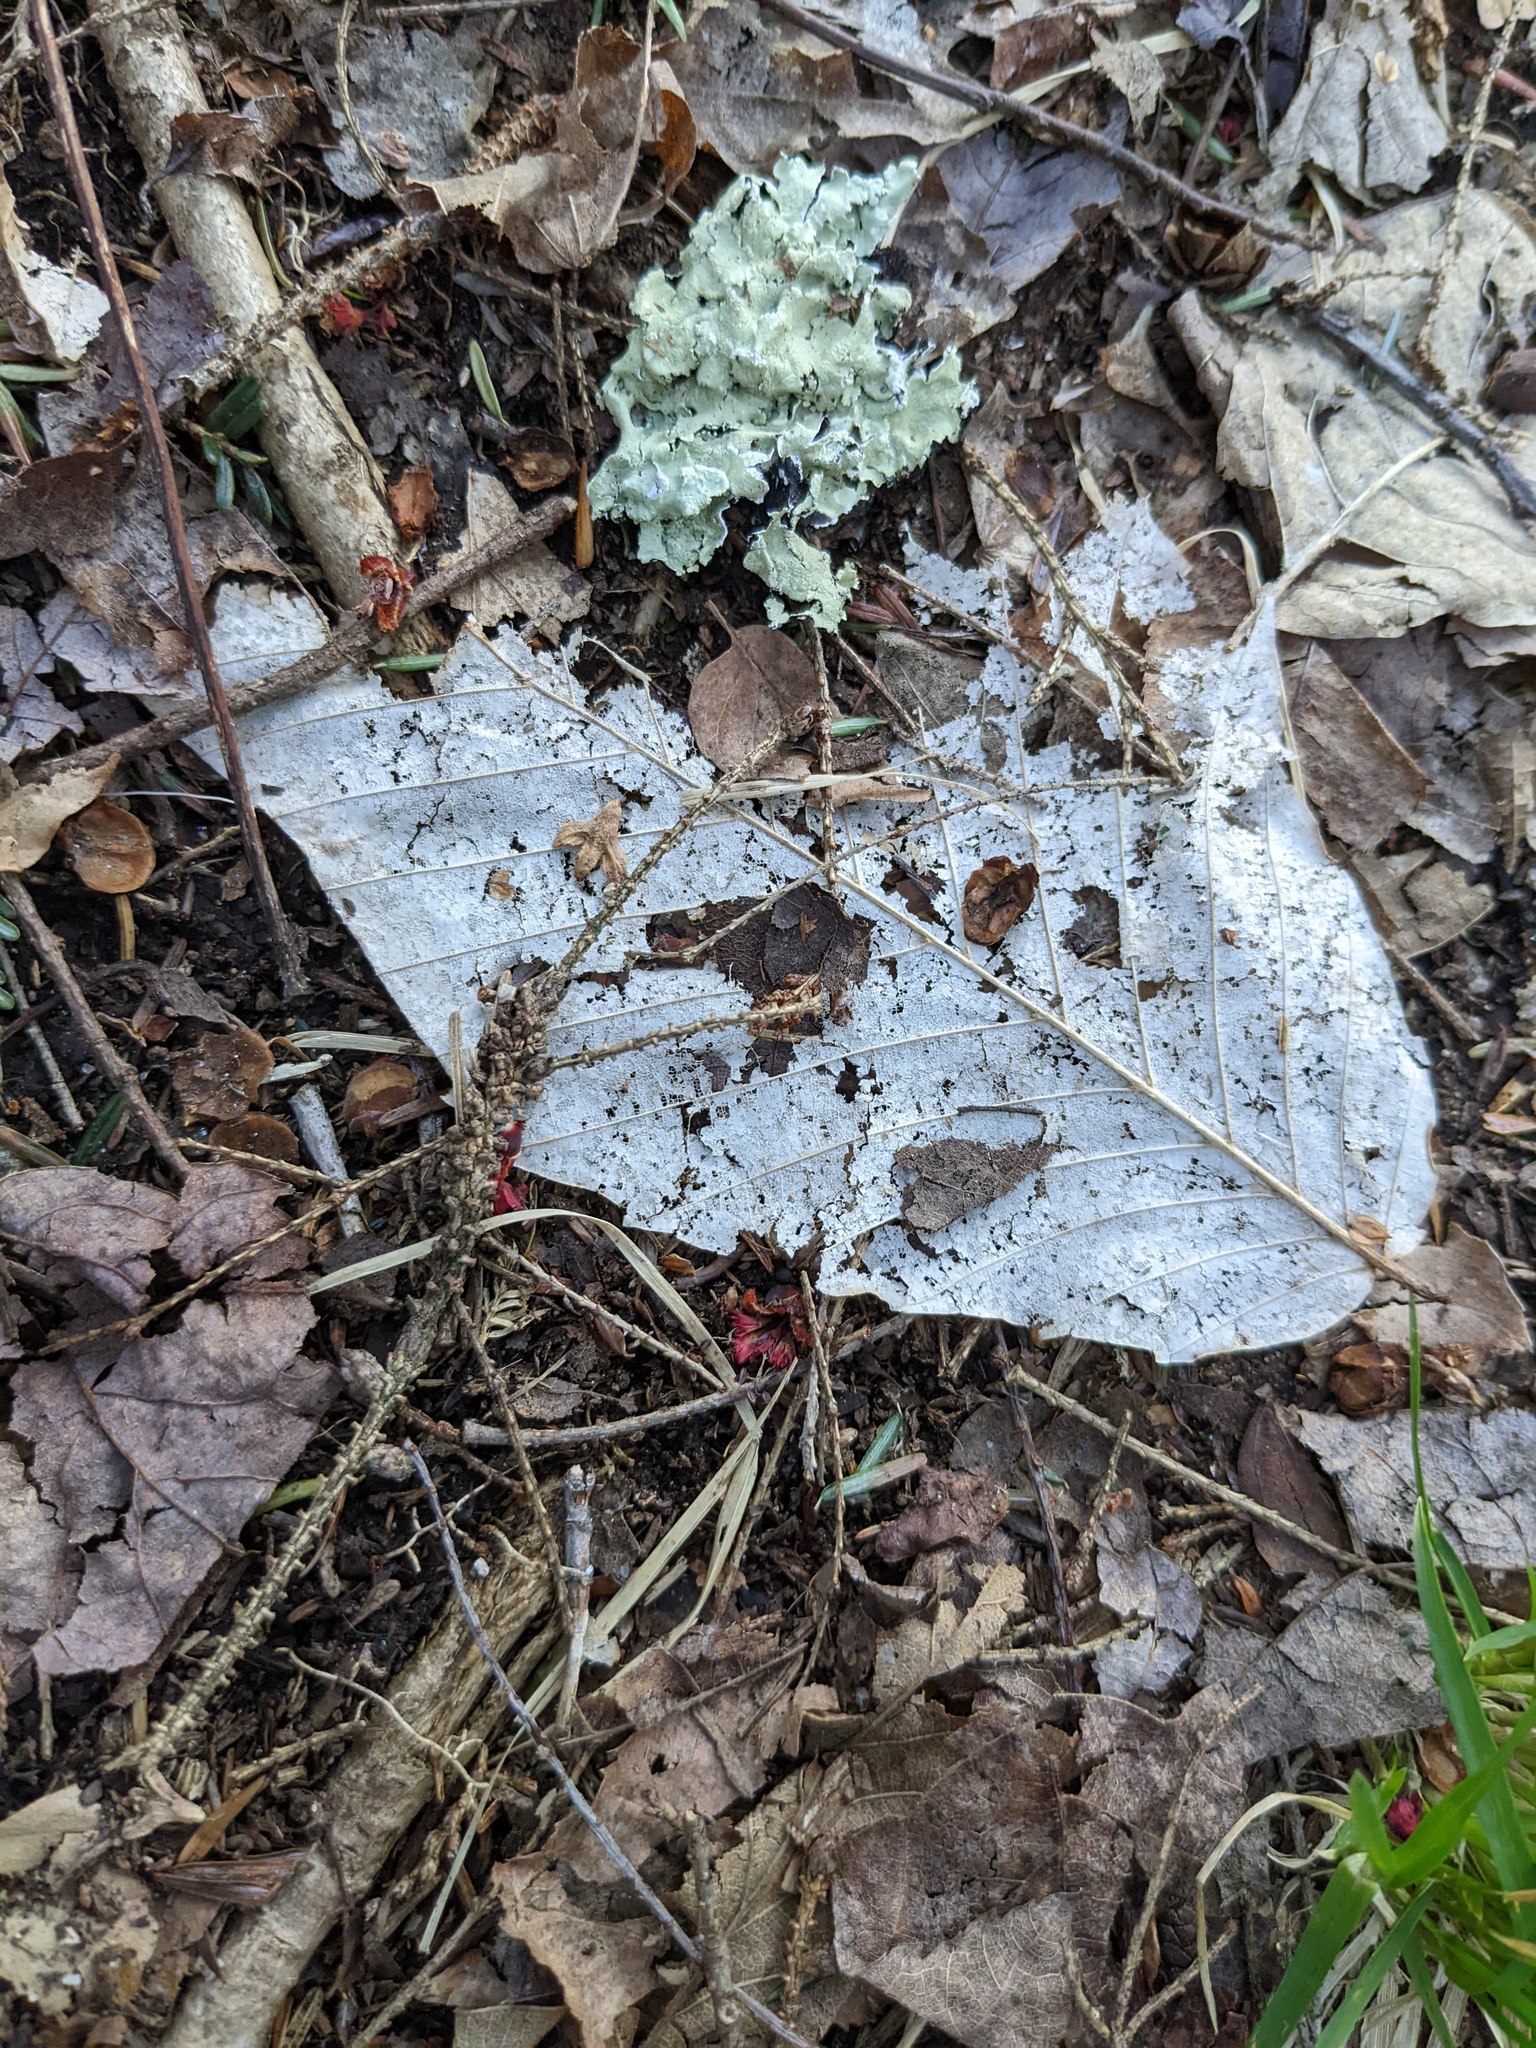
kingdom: Plantae
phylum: Tracheophyta
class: Magnoliopsida
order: Fagales
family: Fagaceae
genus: Fagus
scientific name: Fagus grandifolia
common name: American beech
